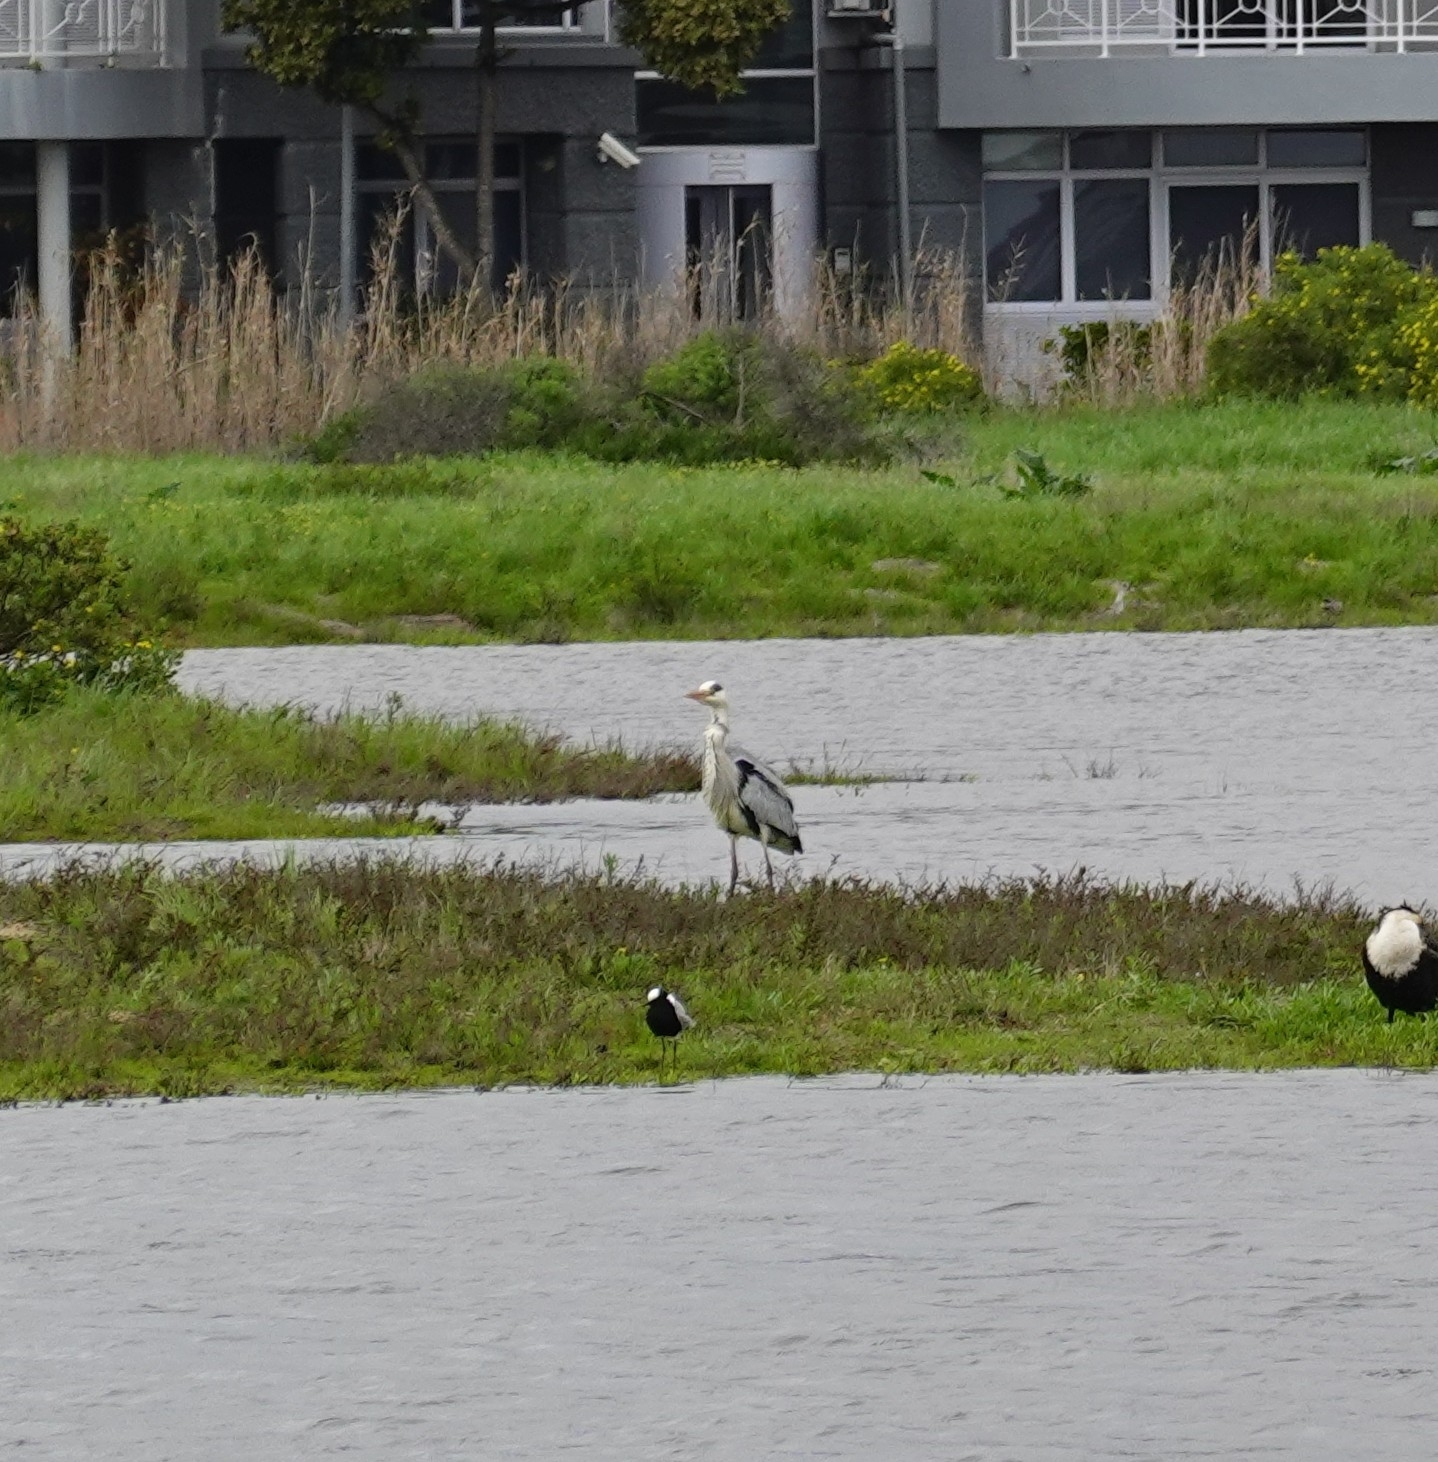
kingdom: Animalia
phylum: Chordata
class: Aves
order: Pelecaniformes
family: Ardeidae
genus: Ardea
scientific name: Ardea cinerea
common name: Grey heron
